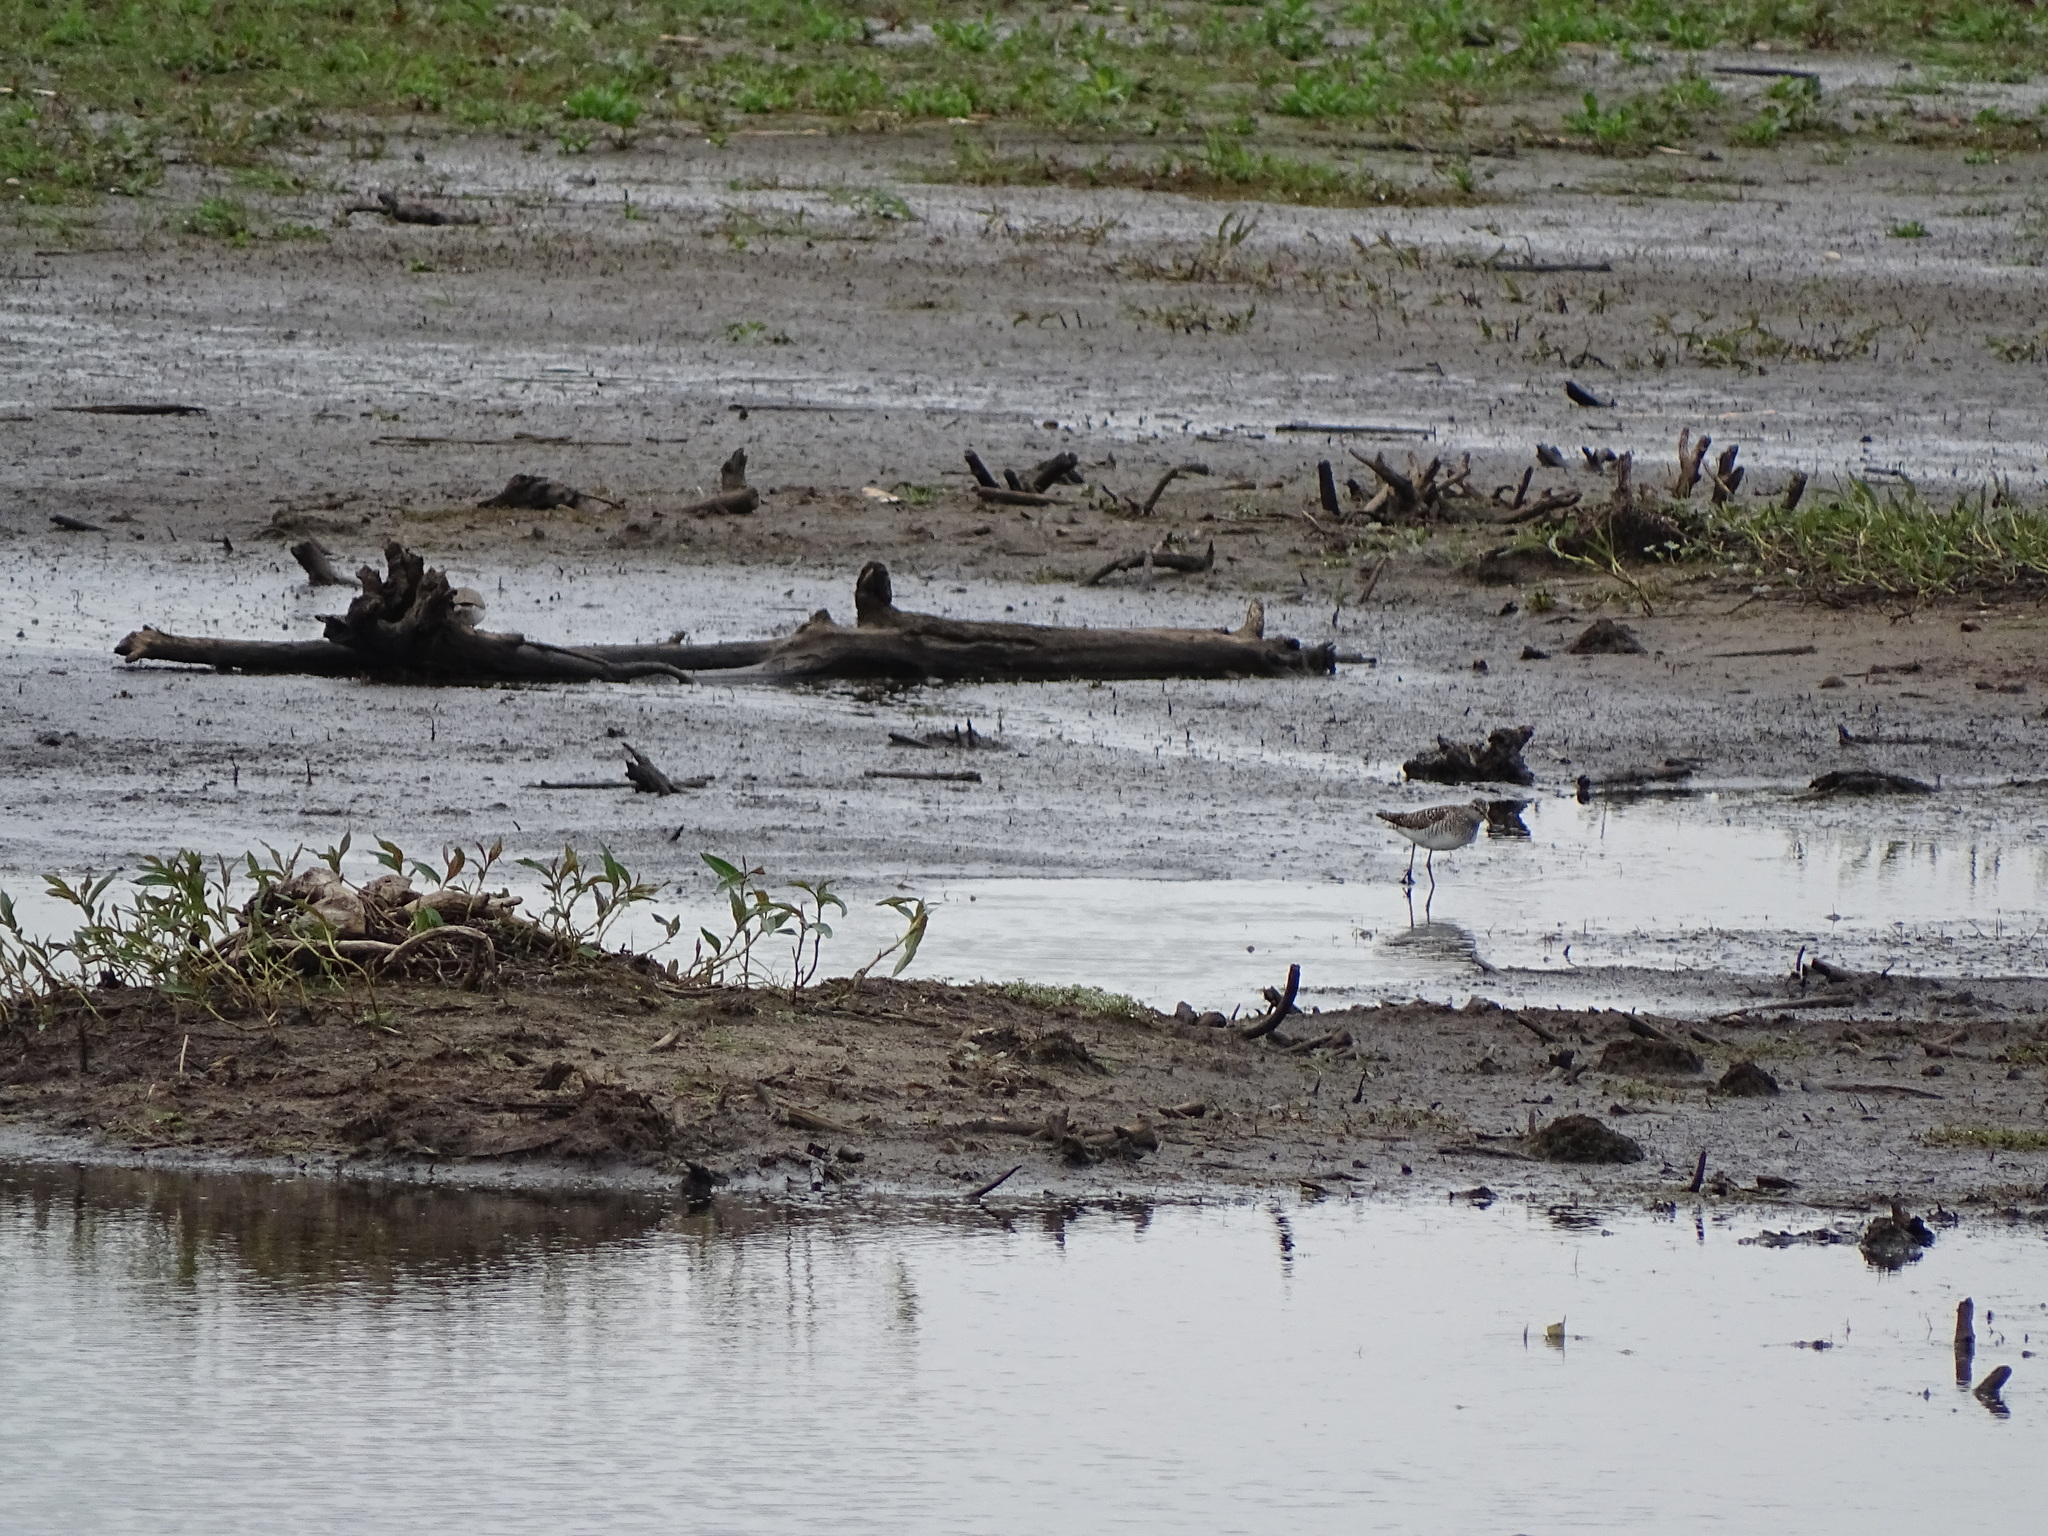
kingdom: Animalia
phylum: Chordata
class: Aves
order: Charadriiformes
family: Scolopacidae
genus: Tringa
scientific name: Tringa glareola
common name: Wood sandpiper
